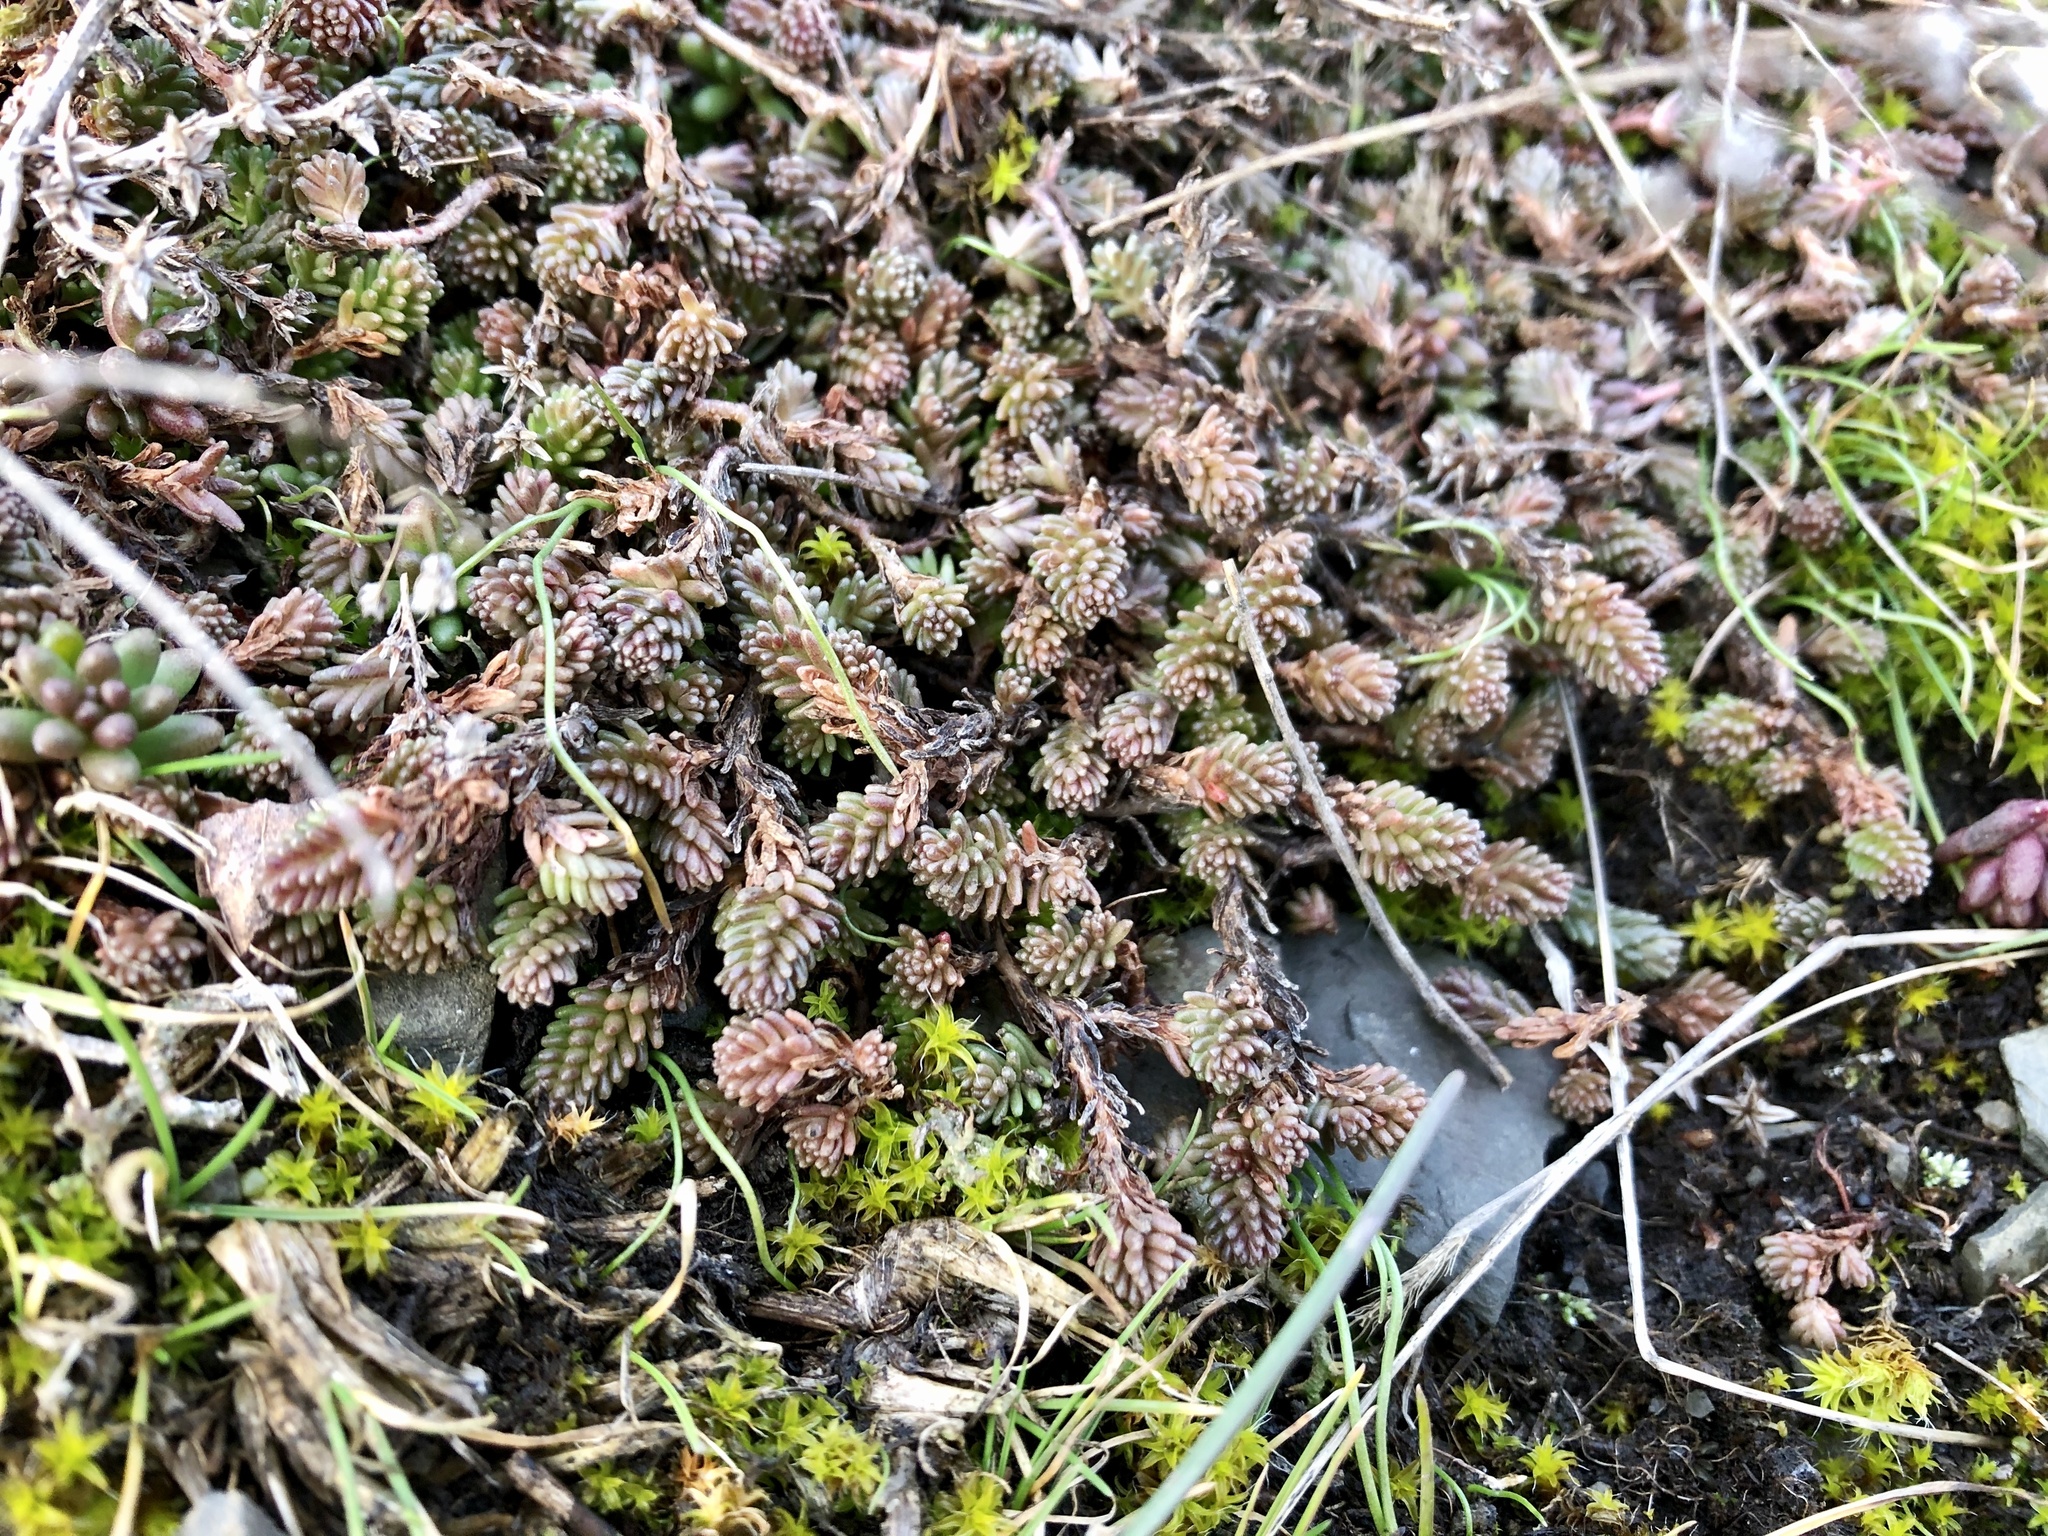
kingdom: Plantae
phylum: Tracheophyta
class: Magnoliopsida
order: Saxifragales
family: Crassulaceae
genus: Sedum
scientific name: Sedum sexangulare
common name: Tasteless stonecrop
